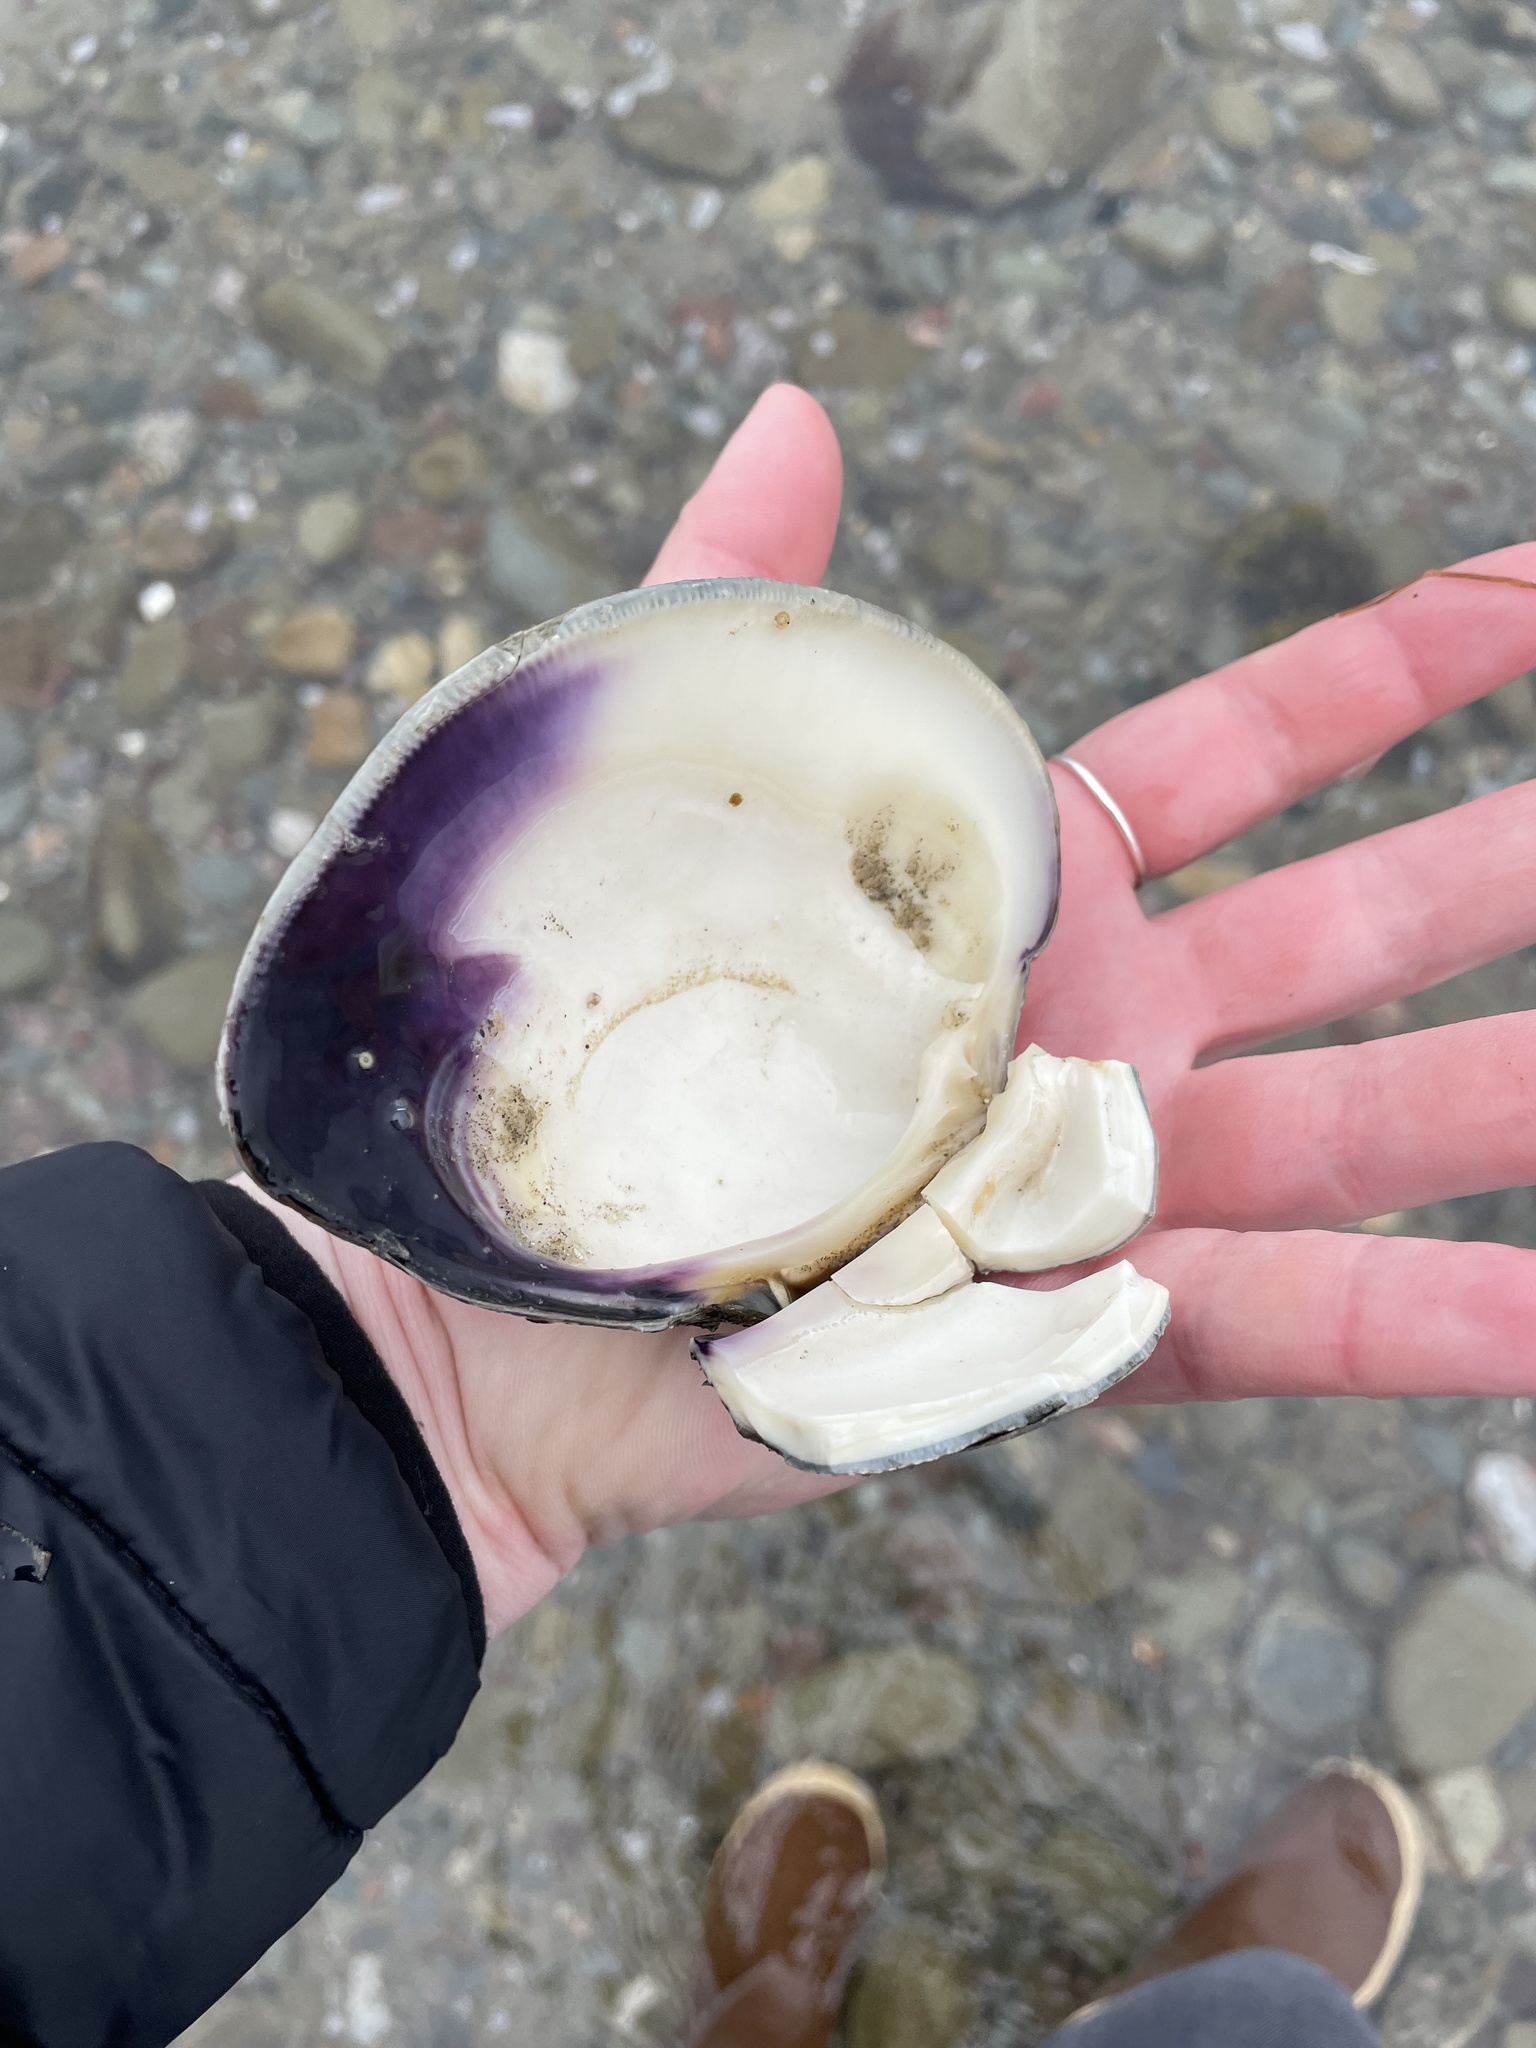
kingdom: Animalia
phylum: Mollusca
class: Bivalvia
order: Venerida
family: Veneridae
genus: Mercenaria
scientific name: Mercenaria mercenaria
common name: American hard-shelled clam
